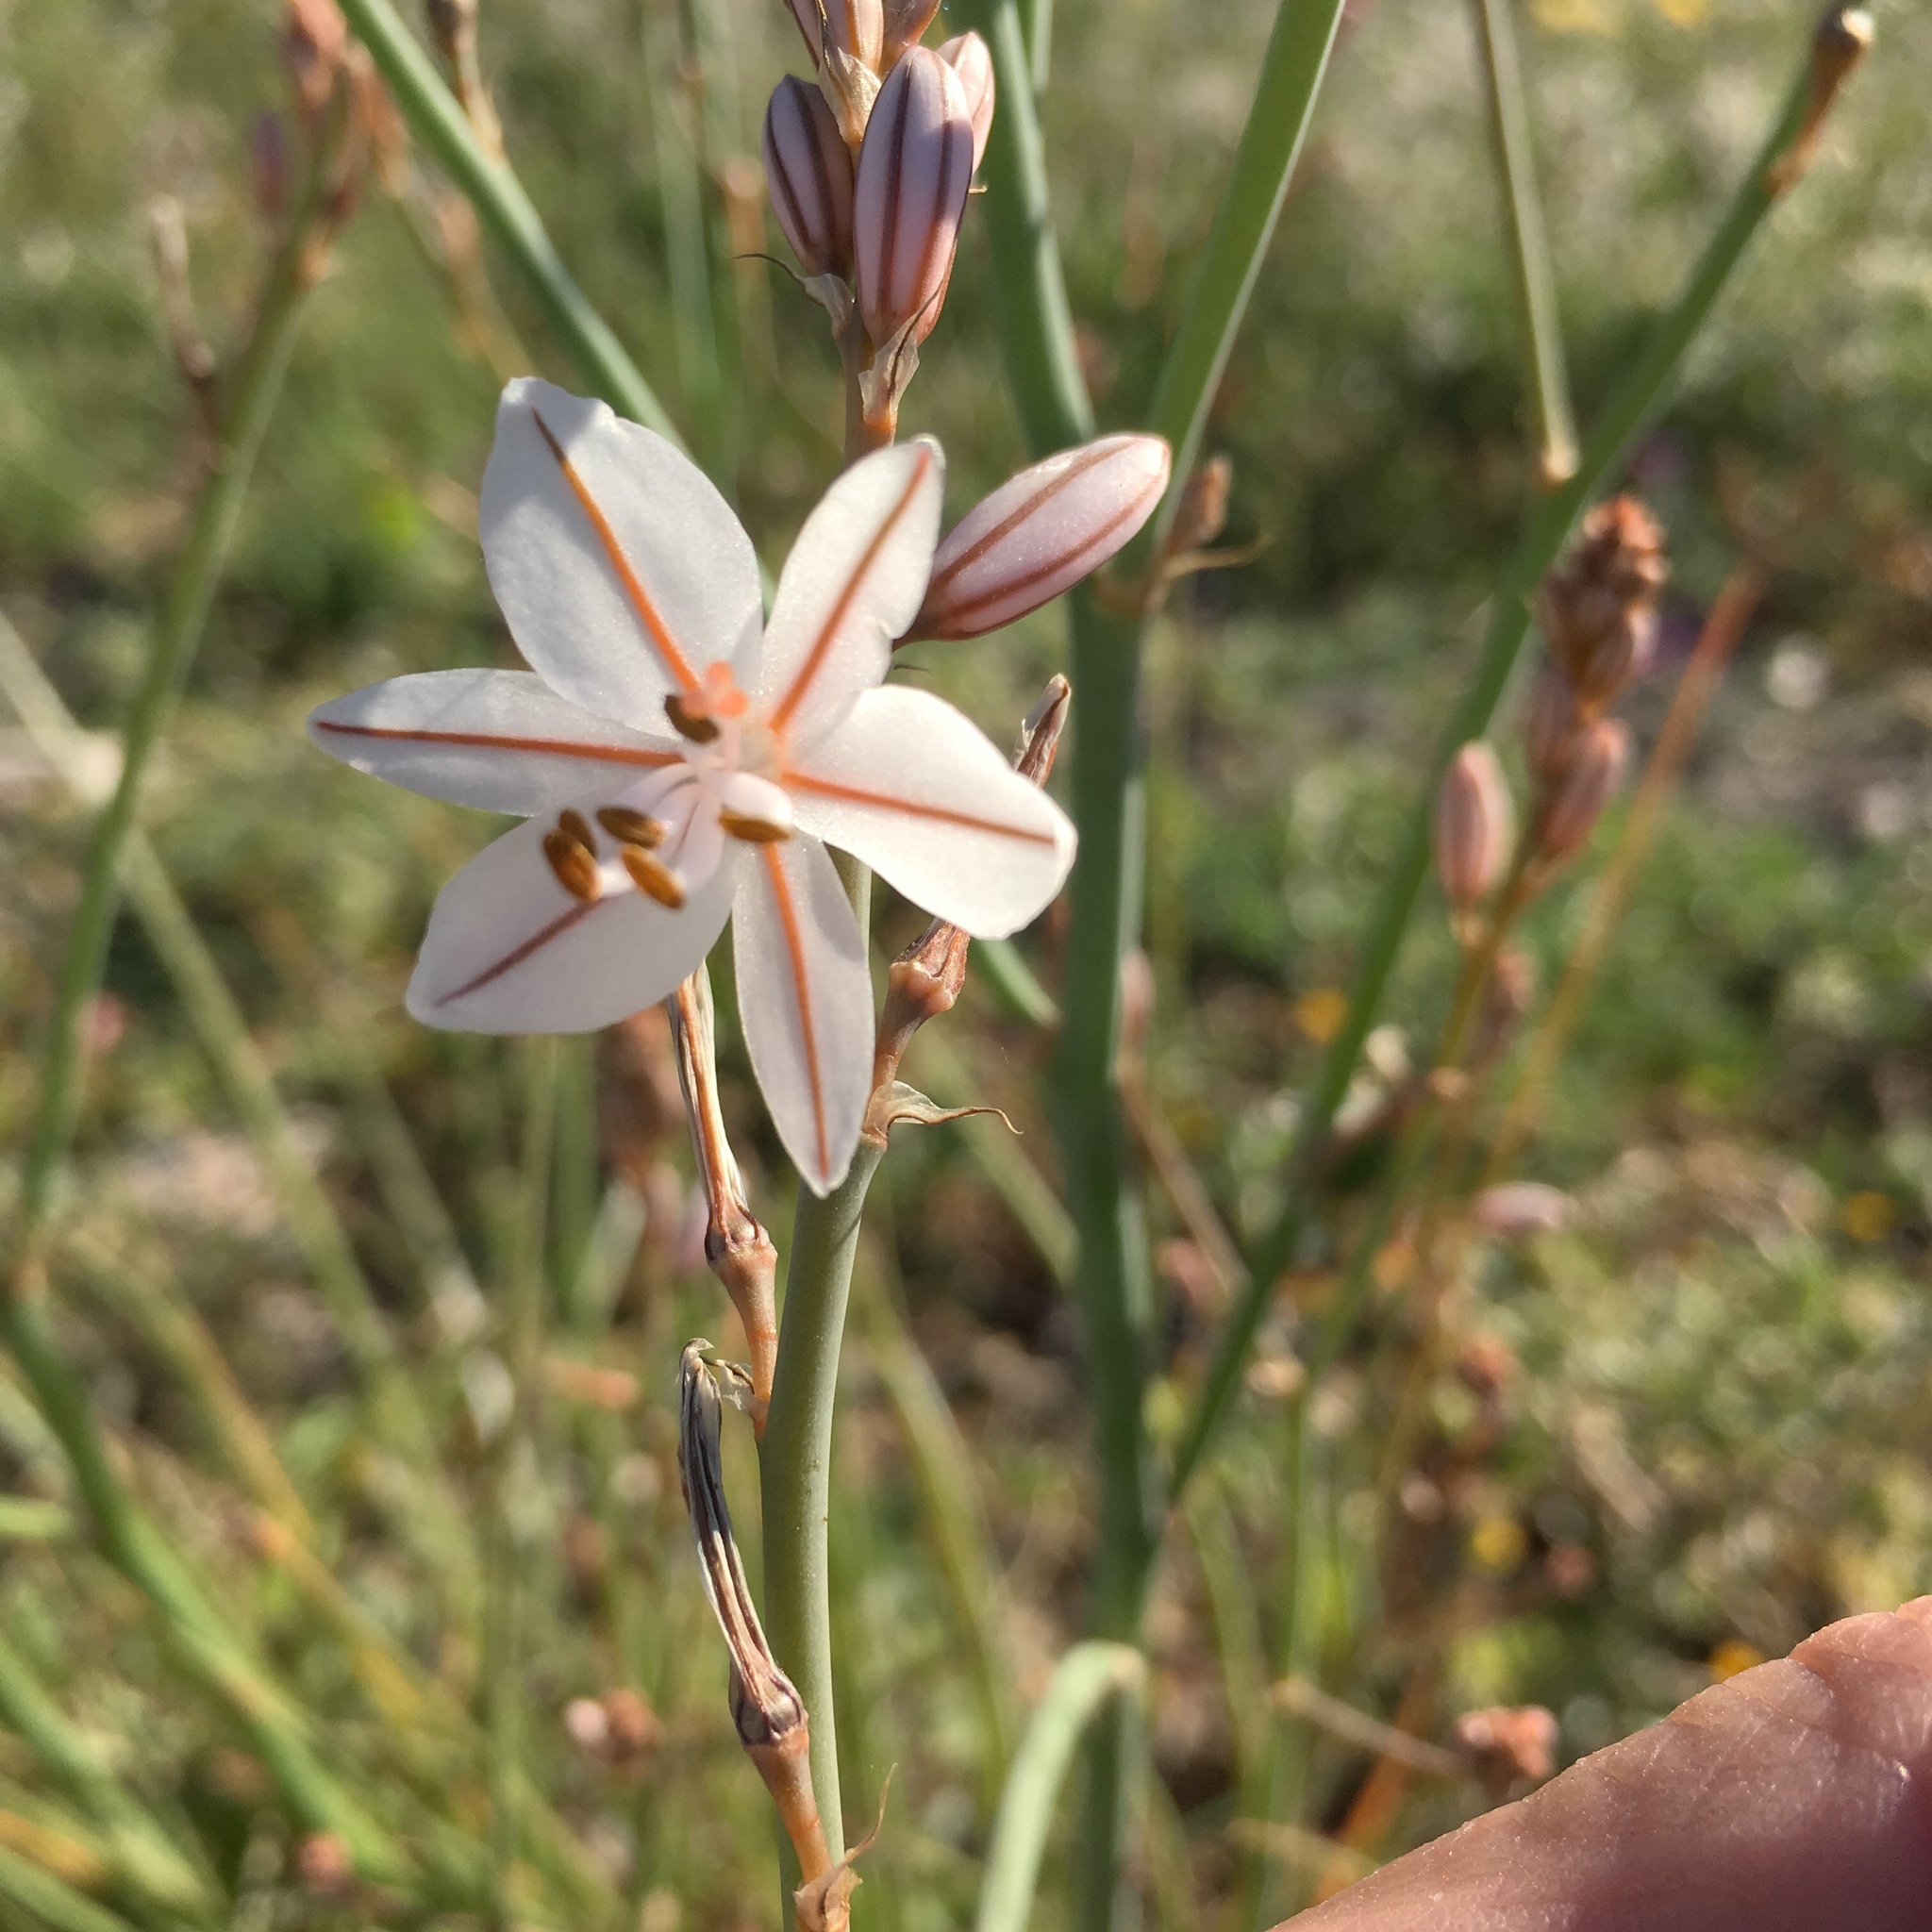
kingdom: Plantae
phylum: Tracheophyta
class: Liliopsida
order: Asparagales
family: Asphodelaceae
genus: Asphodelus
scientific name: Asphodelus fistulosus
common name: Onionweed
